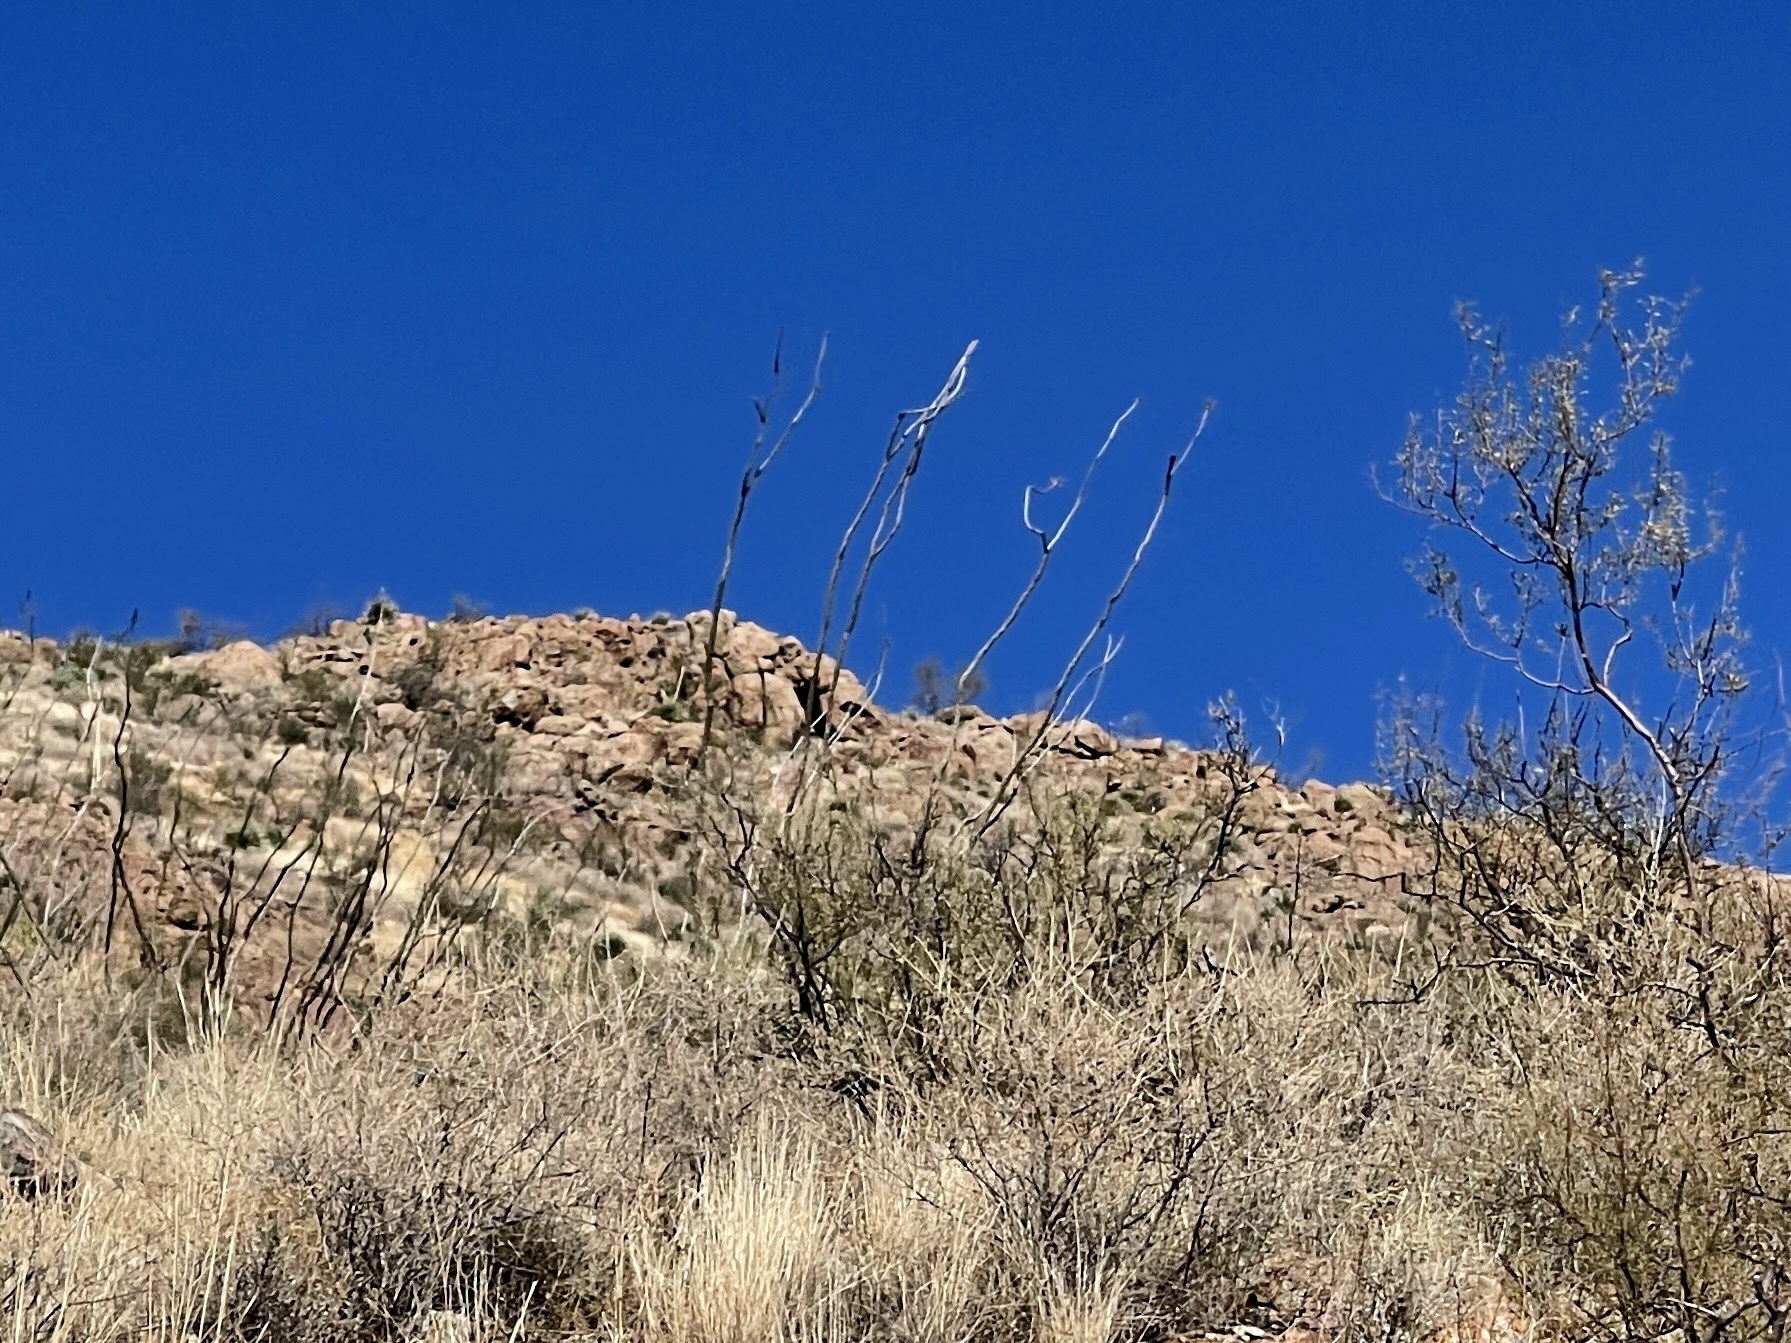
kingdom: Plantae
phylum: Tracheophyta
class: Magnoliopsida
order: Ericales
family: Fouquieriaceae
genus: Fouquieria
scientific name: Fouquieria splendens
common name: Vine-cactus
